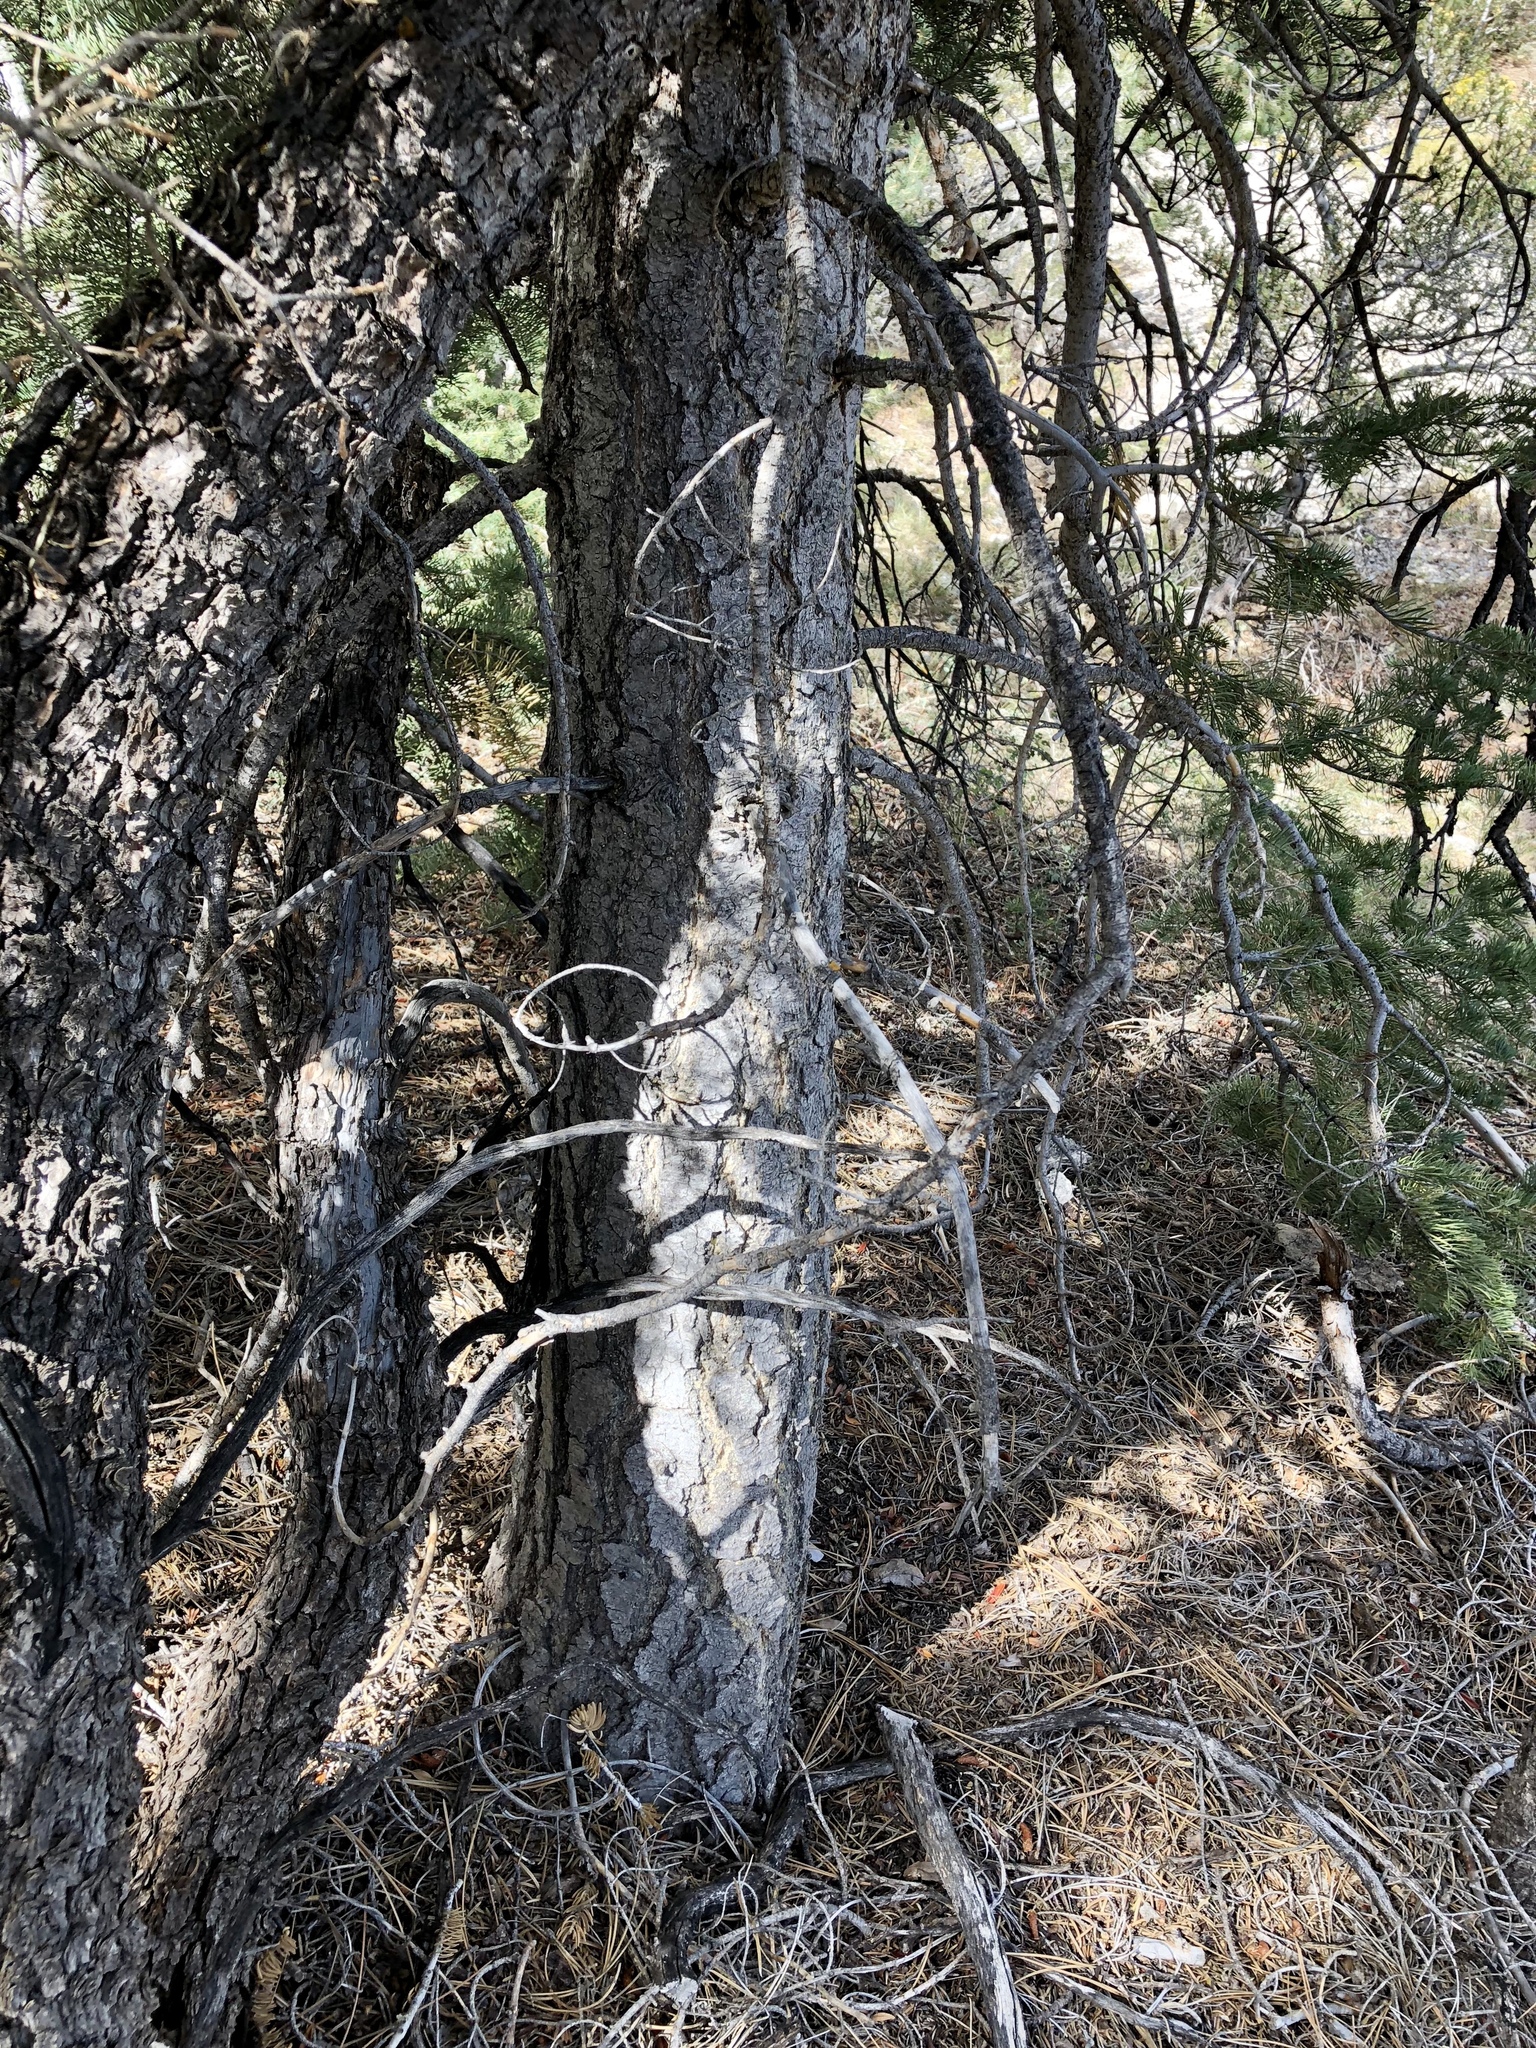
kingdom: Plantae
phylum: Tracheophyta
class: Pinopsida
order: Pinales
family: Pinaceae
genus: Abies
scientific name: Abies concolor
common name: Colorado fir
